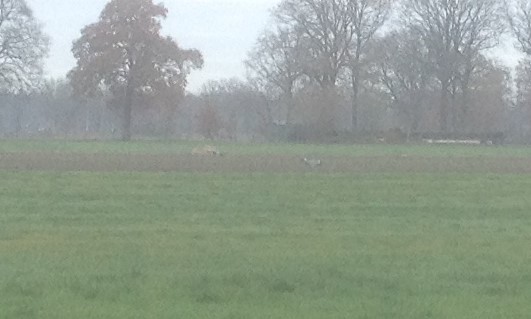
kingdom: Animalia
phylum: Chordata
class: Aves
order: Pelecaniformes
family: Ardeidae
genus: Ardea
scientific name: Ardea cinerea
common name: Grey heron
